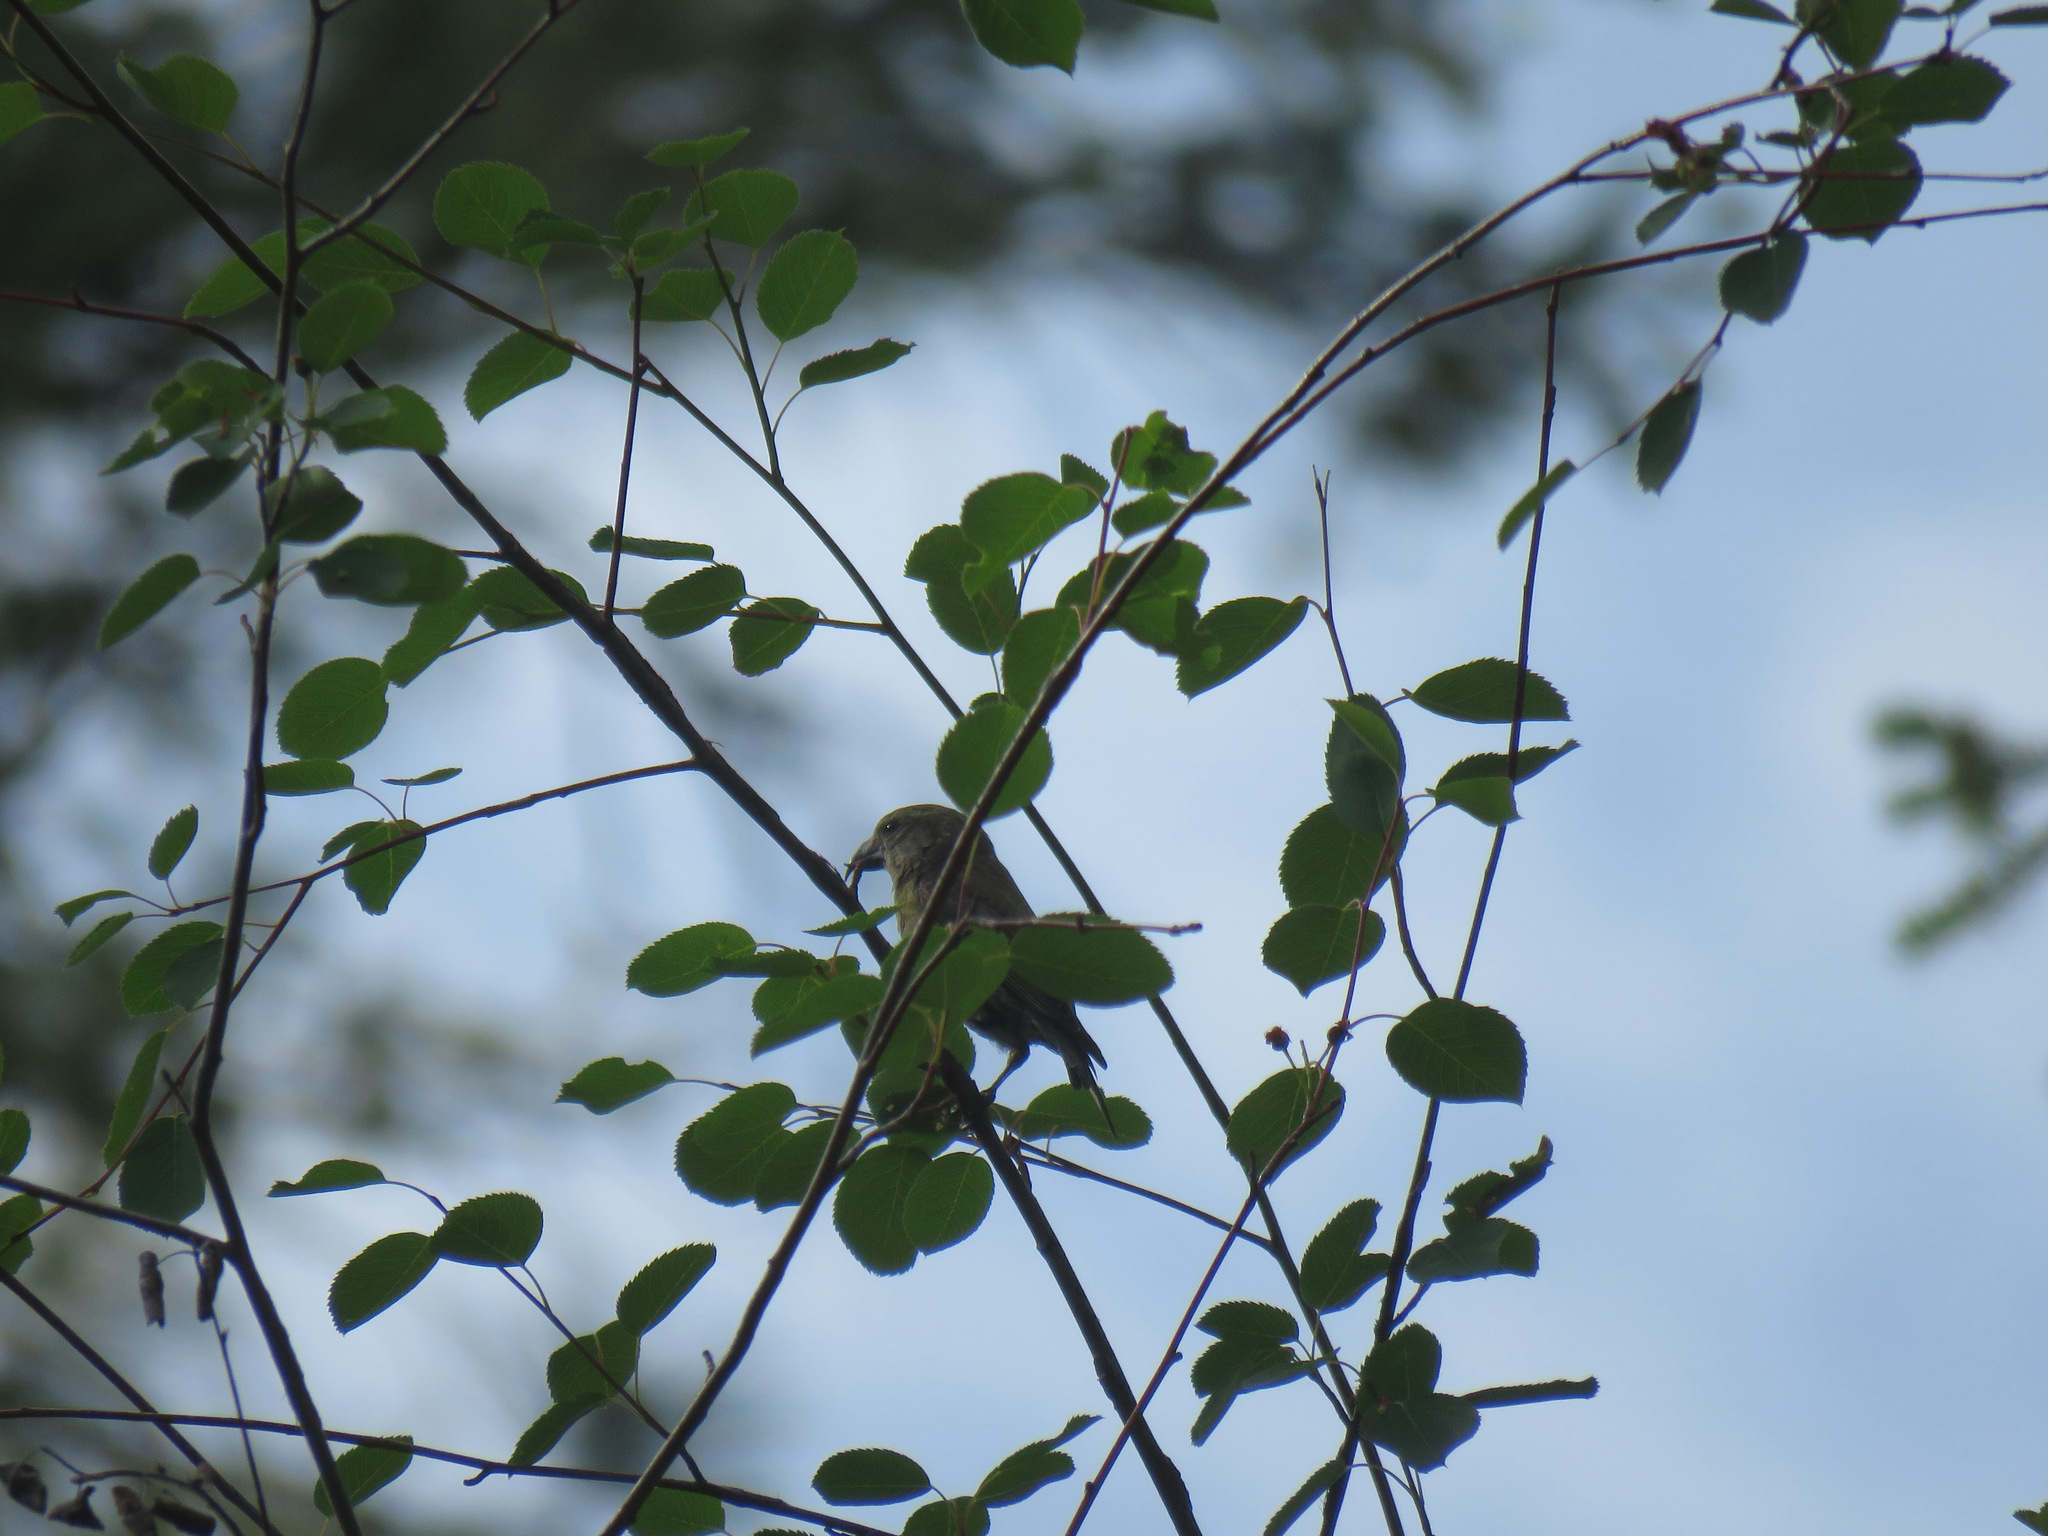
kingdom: Animalia
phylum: Chordata
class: Aves
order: Passeriformes
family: Fringillidae
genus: Loxia
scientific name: Loxia curvirostra
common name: Red crossbill
